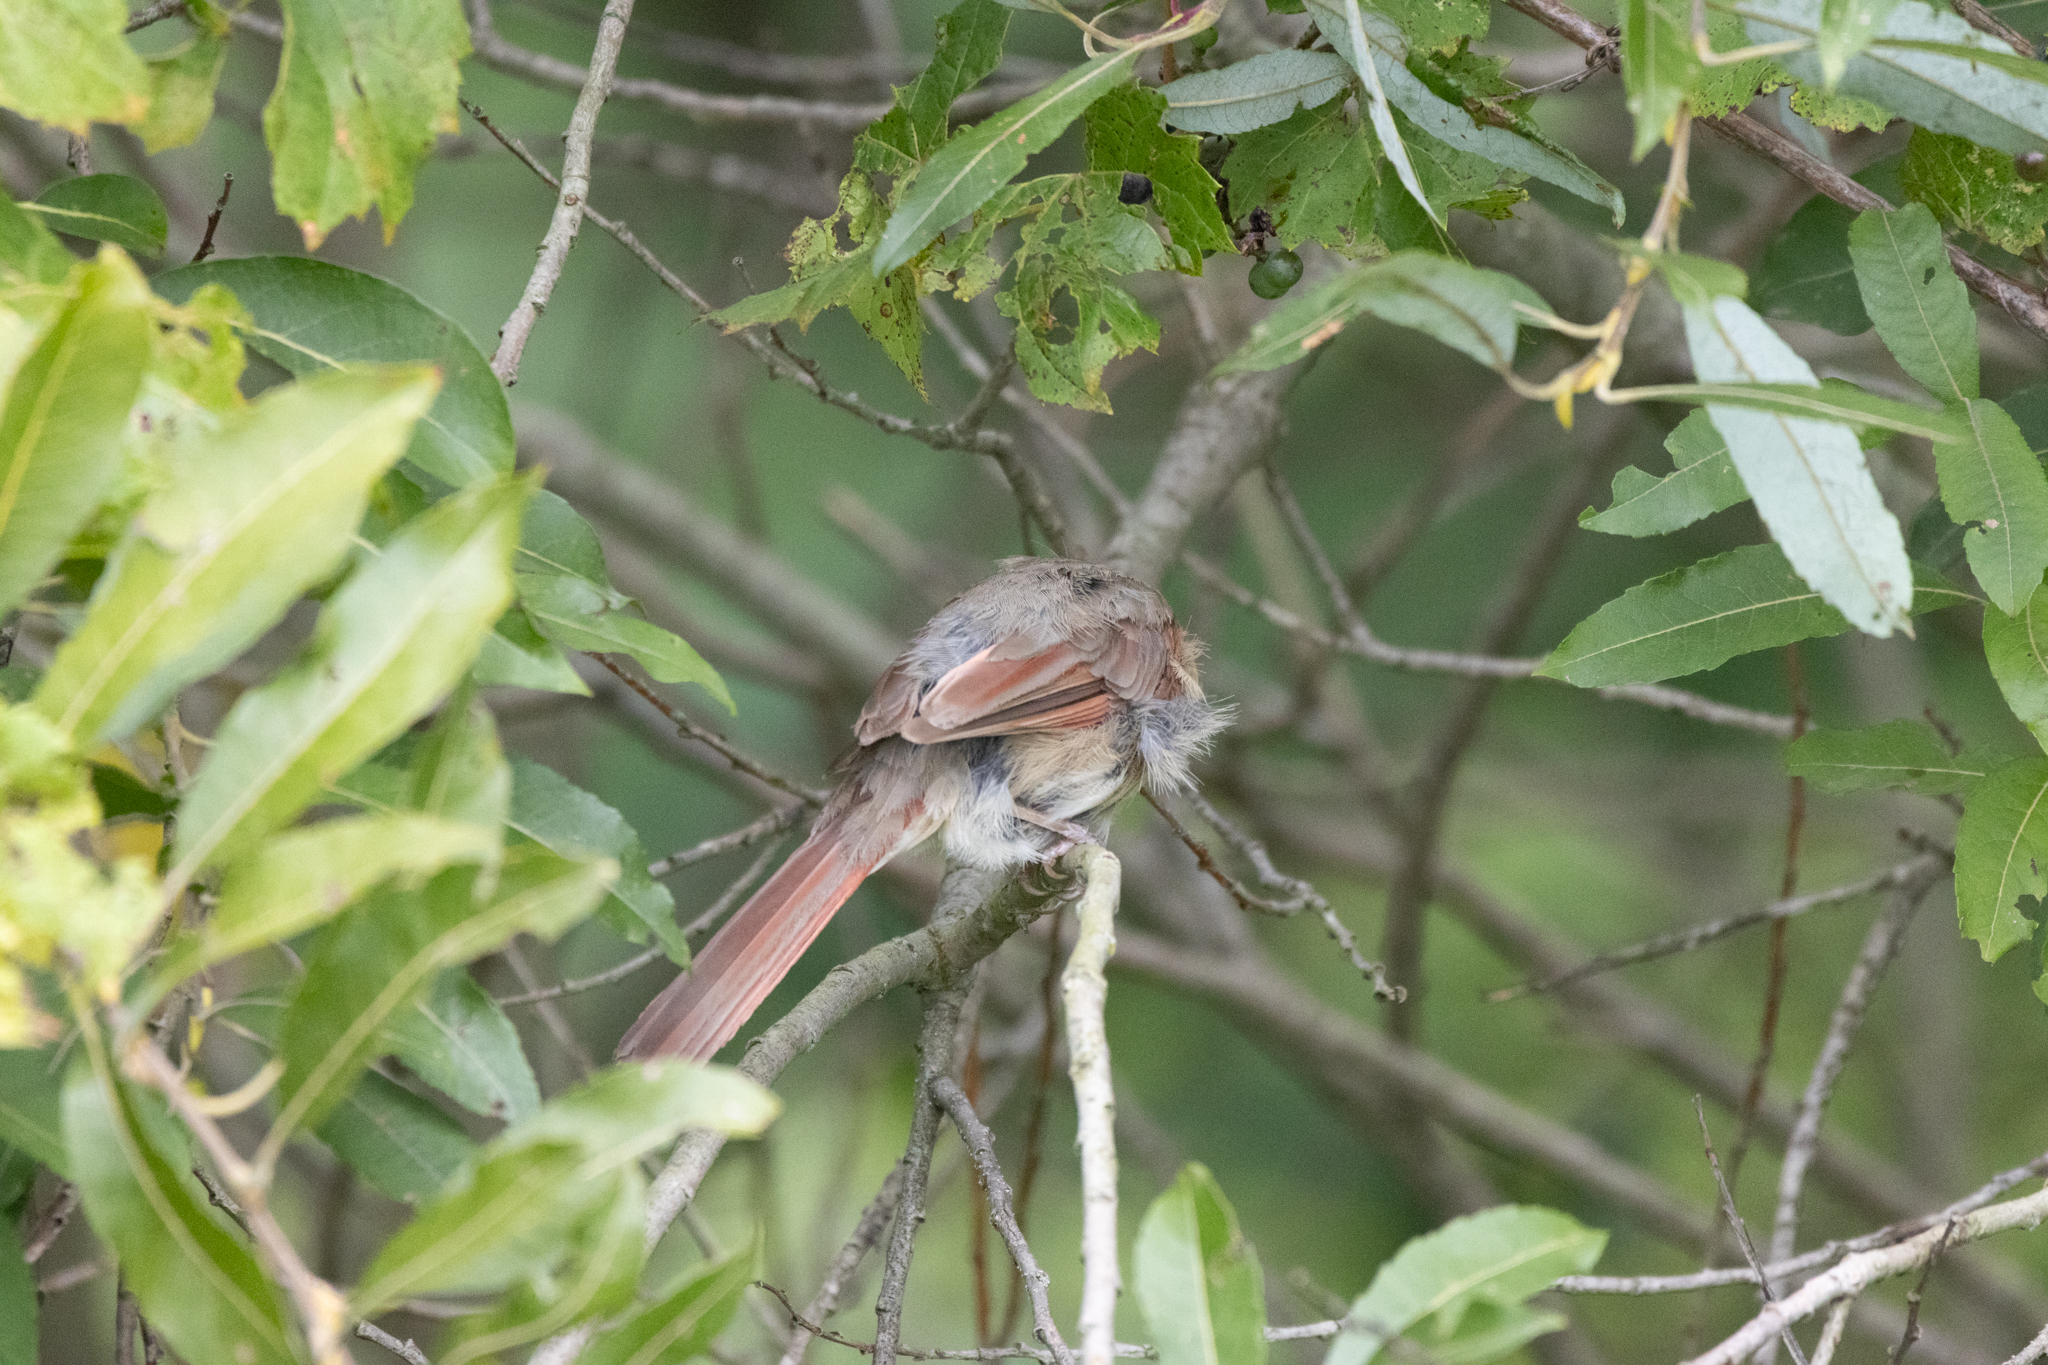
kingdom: Animalia
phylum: Chordata
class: Aves
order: Passeriformes
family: Cardinalidae
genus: Cardinalis
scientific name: Cardinalis cardinalis
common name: Northern cardinal
